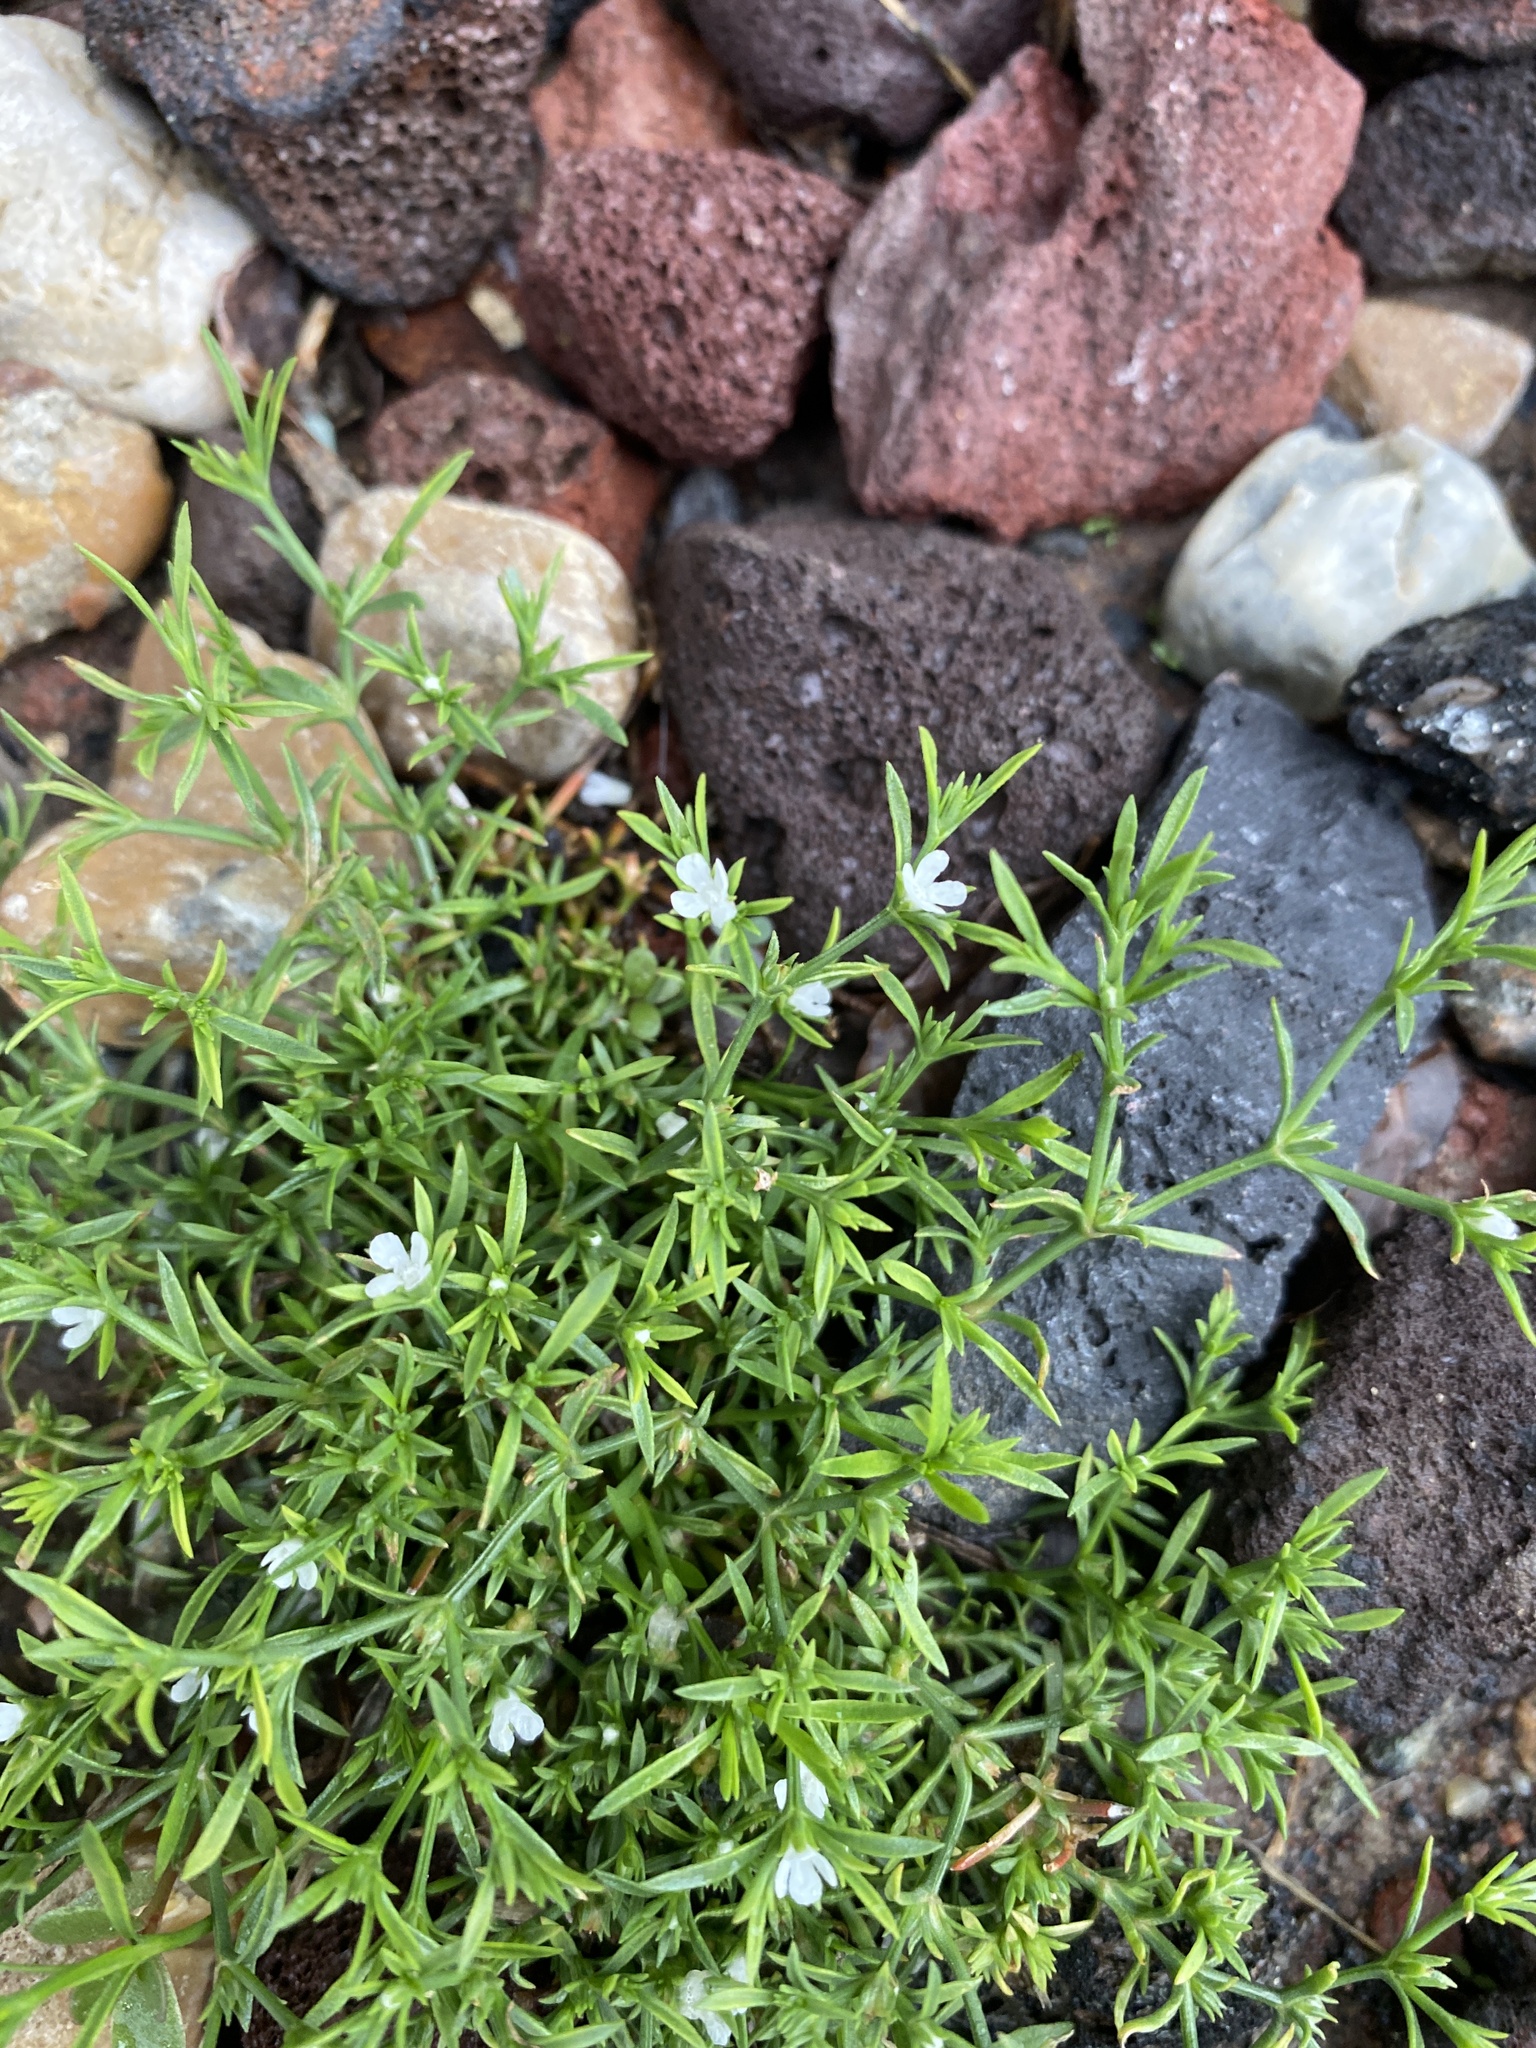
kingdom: Plantae
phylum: Tracheophyta
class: Magnoliopsida
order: Lamiales
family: Tetrachondraceae
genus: Polypremum
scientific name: Polypremum procumbens
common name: Juniper-leaf
